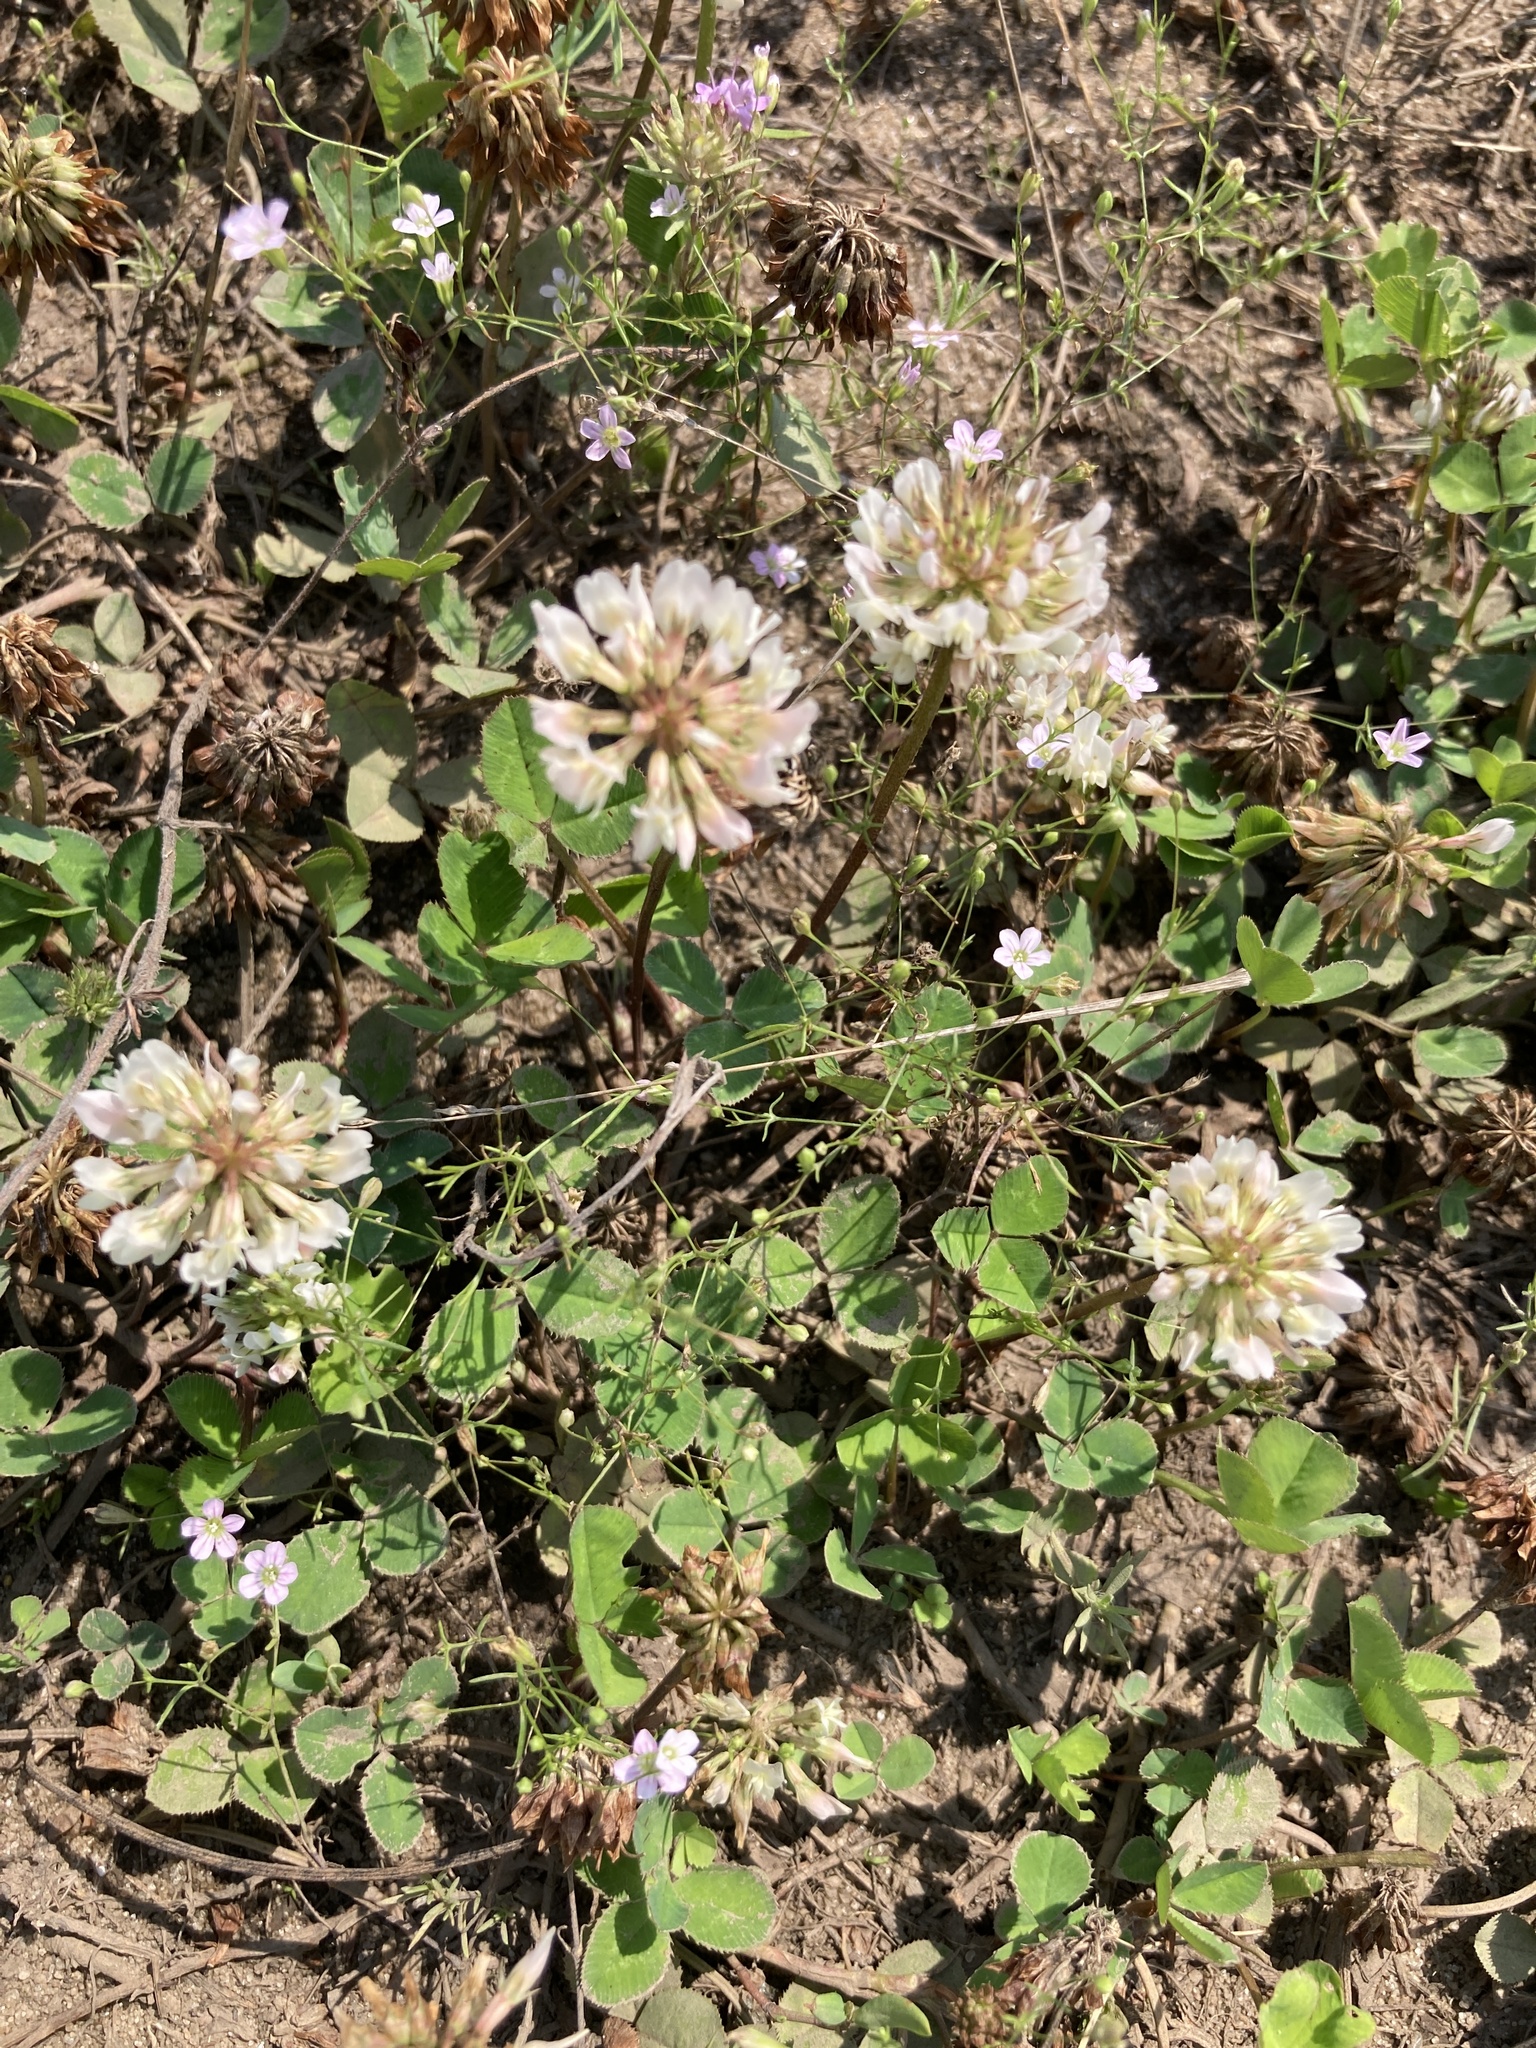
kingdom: Plantae
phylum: Tracheophyta
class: Magnoliopsida
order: Fabales
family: Fabaceae
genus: Trifolium
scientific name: Trifolium repens
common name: White clover
